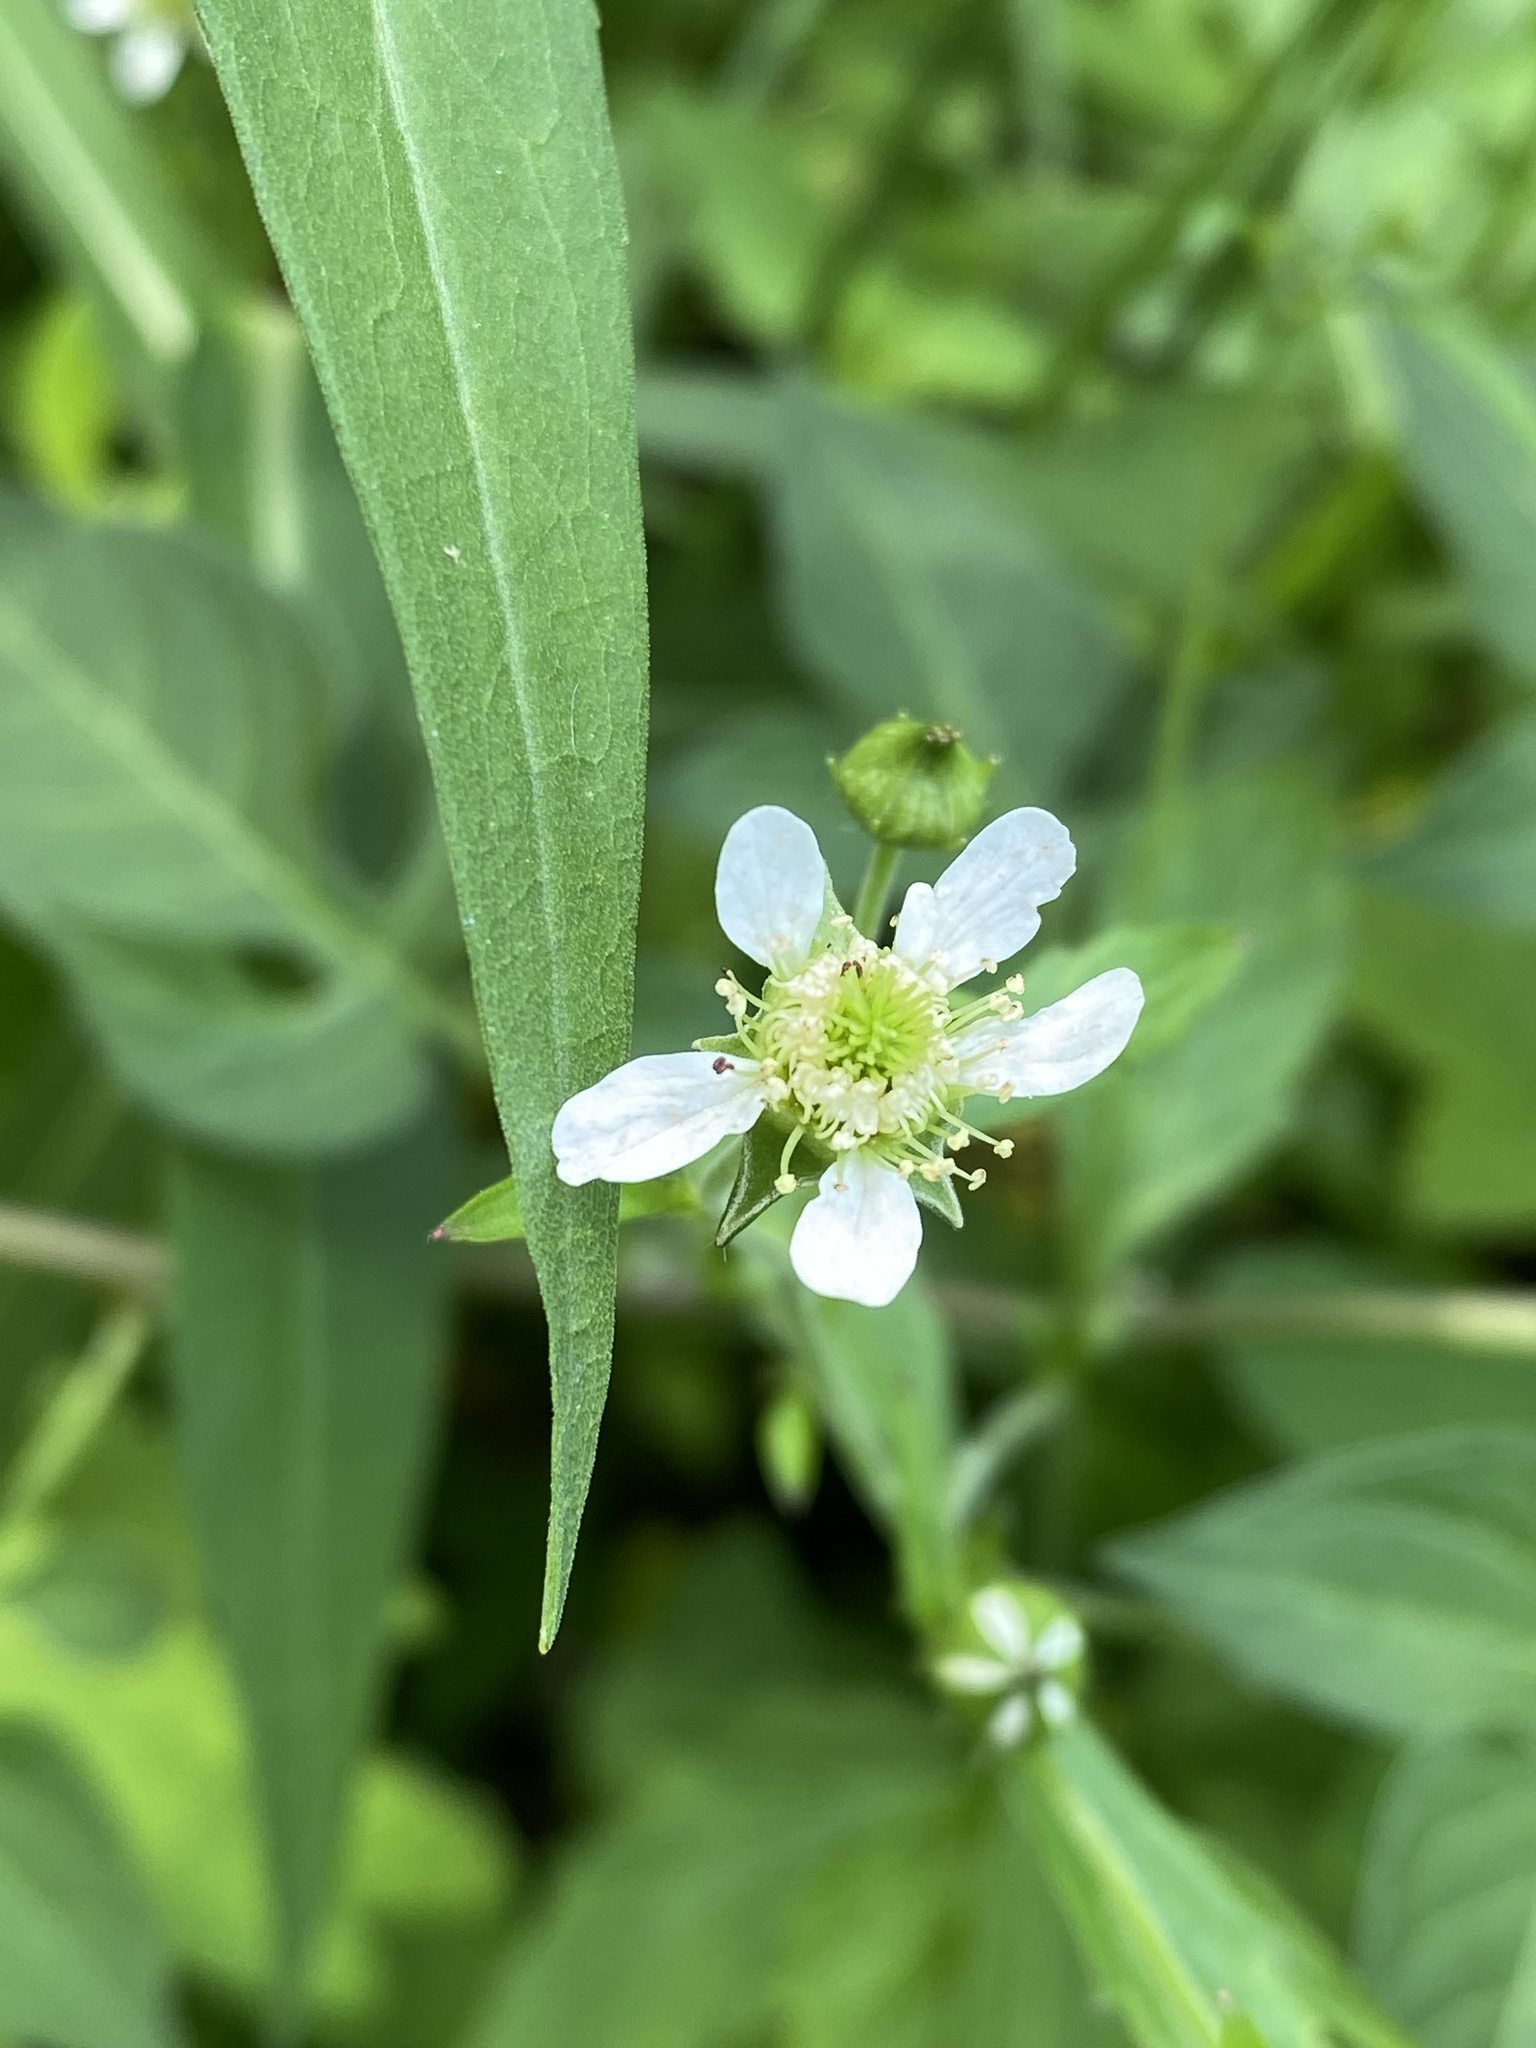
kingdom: Plantae
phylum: Tracheophyta
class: Magnoliopsida
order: Rosales
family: Rosaceae
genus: Geum
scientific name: Geum canadense
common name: White avens
